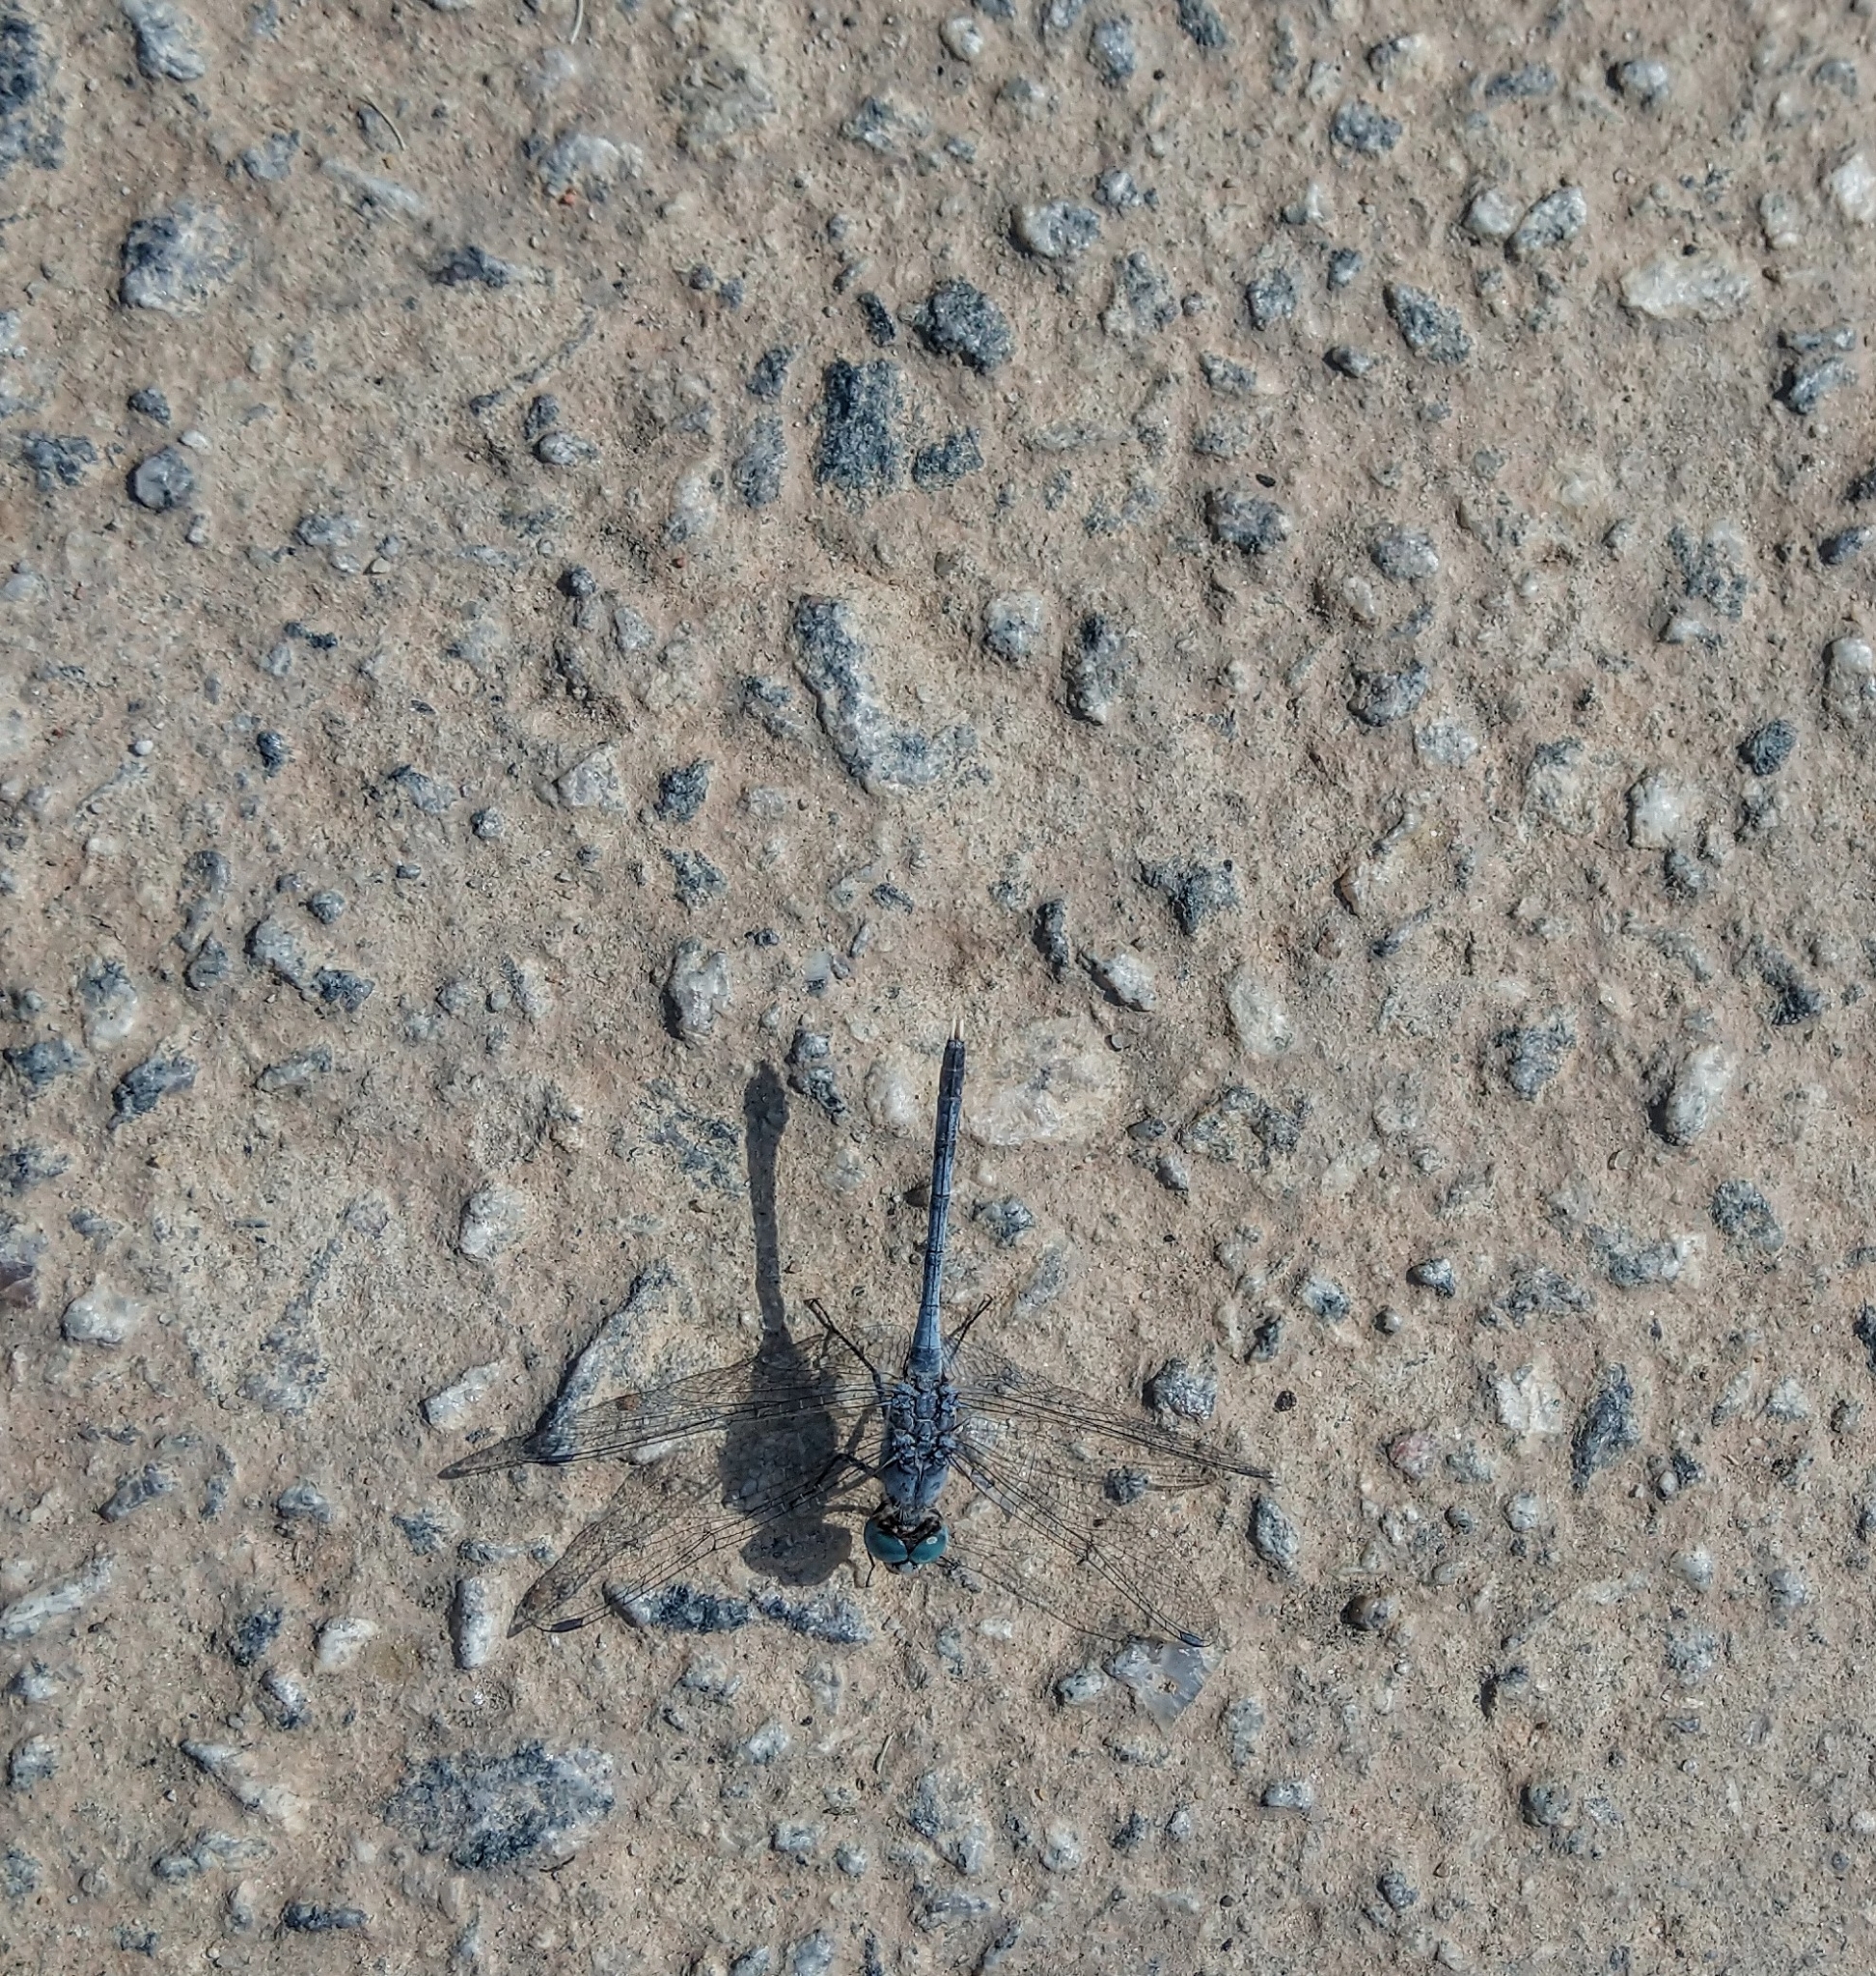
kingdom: Animalia
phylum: Arthropoda
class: Insecta
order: Odonata
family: Libellulidae
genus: Diplacodes
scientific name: Diplacodes trivialis
